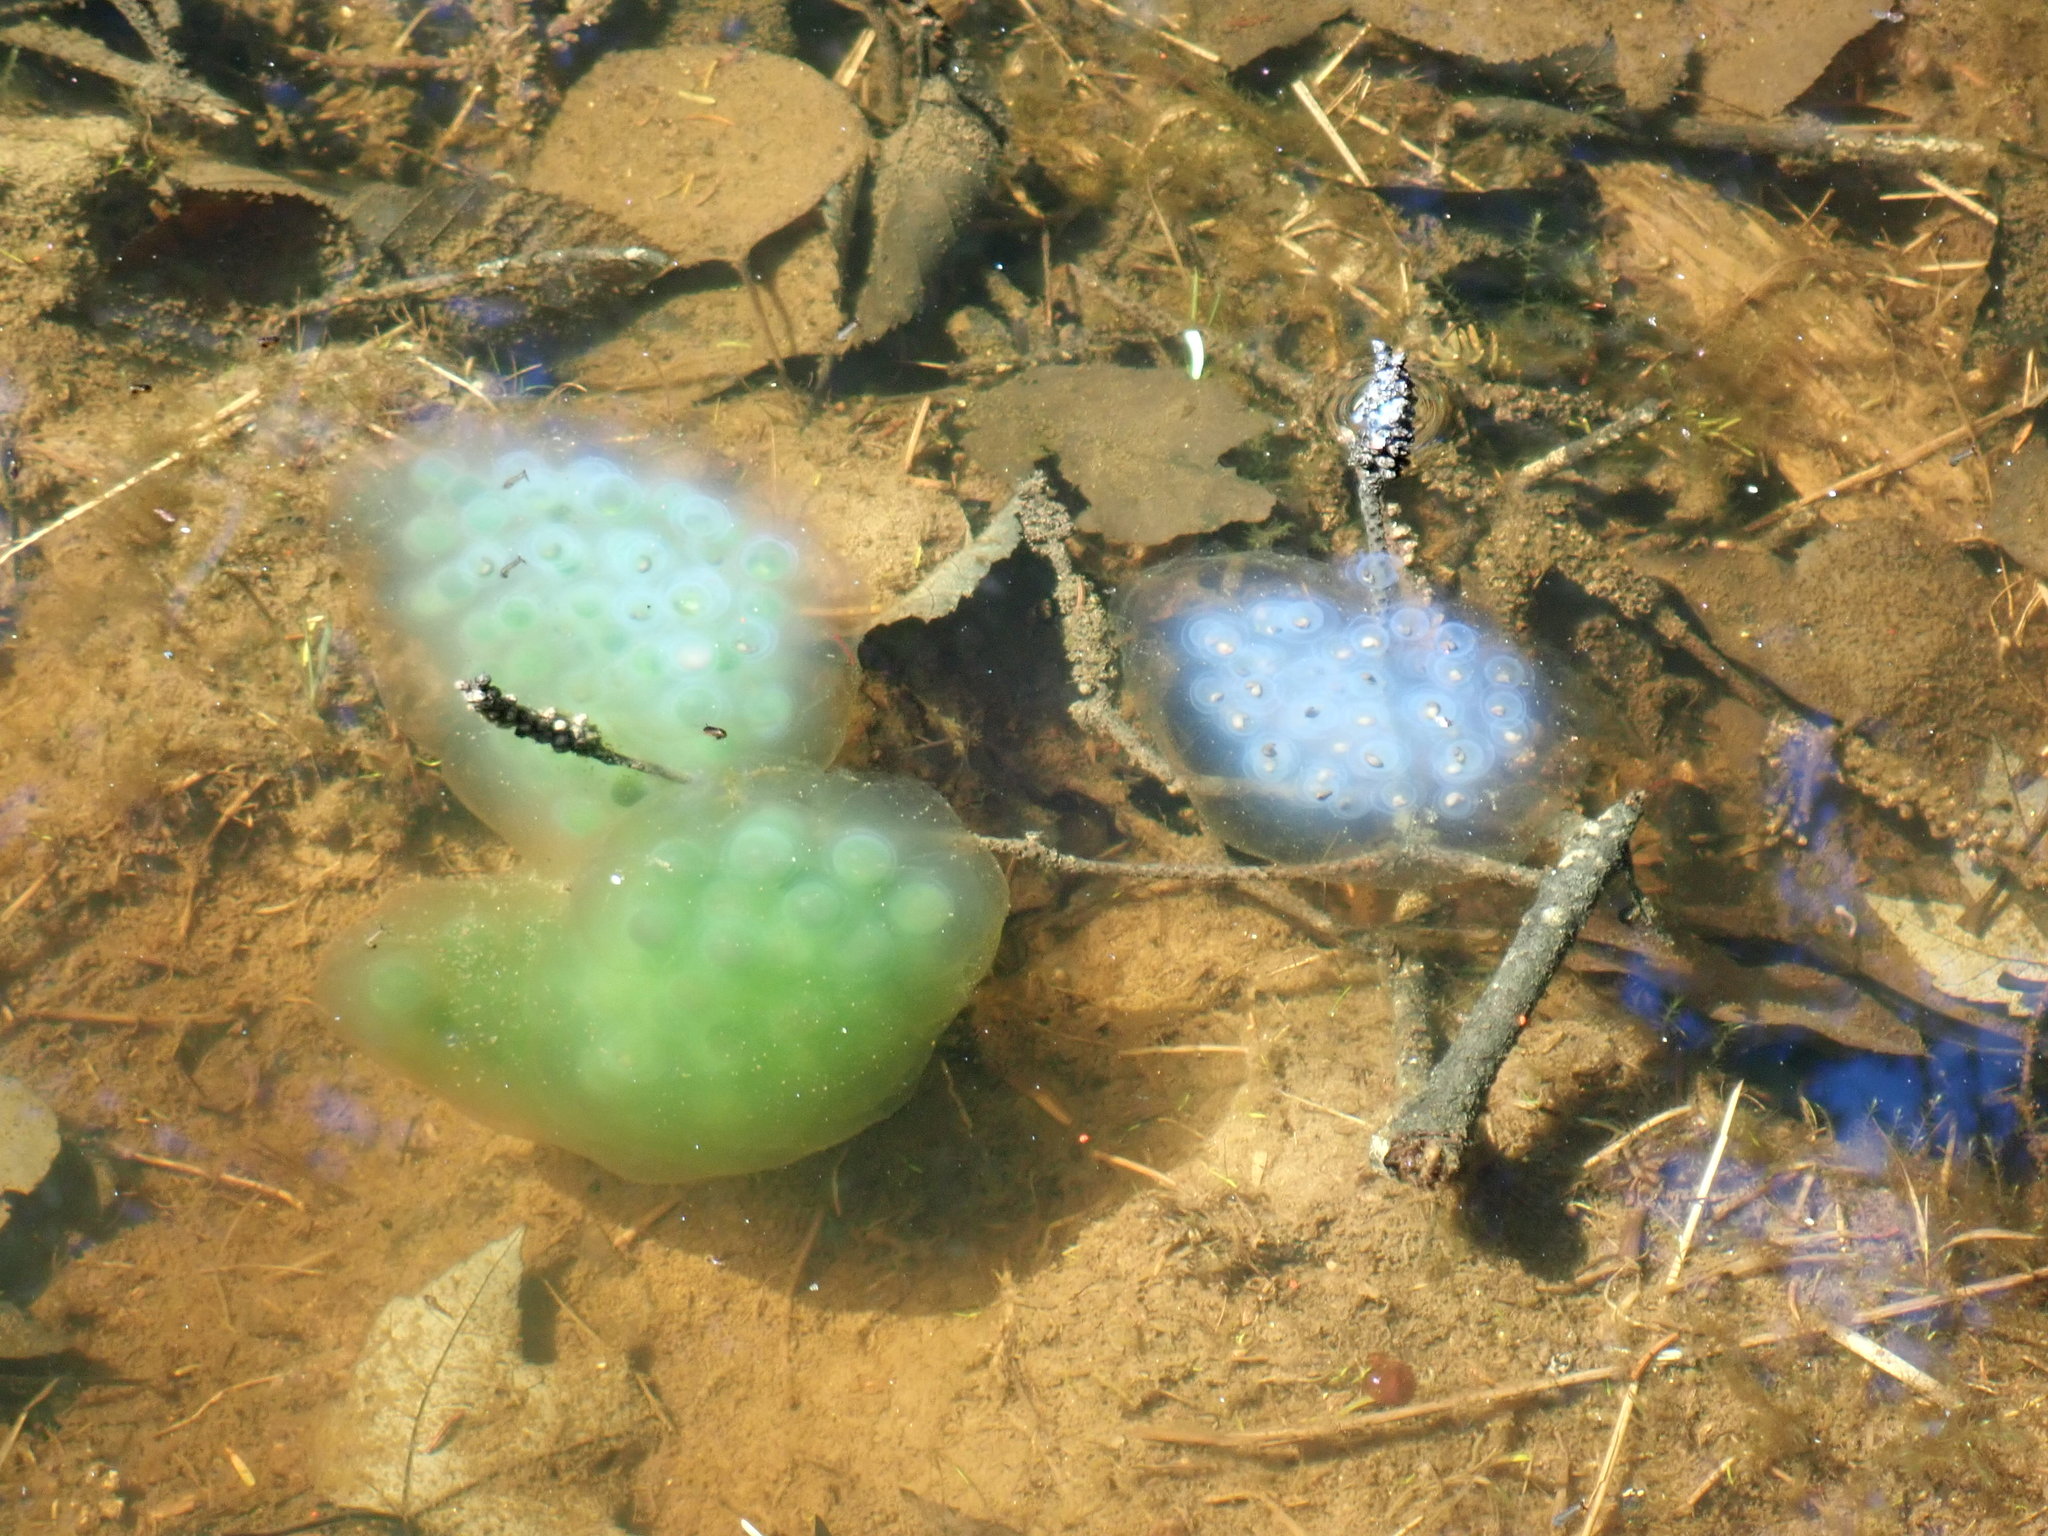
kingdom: Animalia
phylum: Chordata
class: Amphibia
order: Caudata
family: Ambystomatidae
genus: Ambystoma
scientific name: Ambystoma maculatum
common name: Spotted salamander
